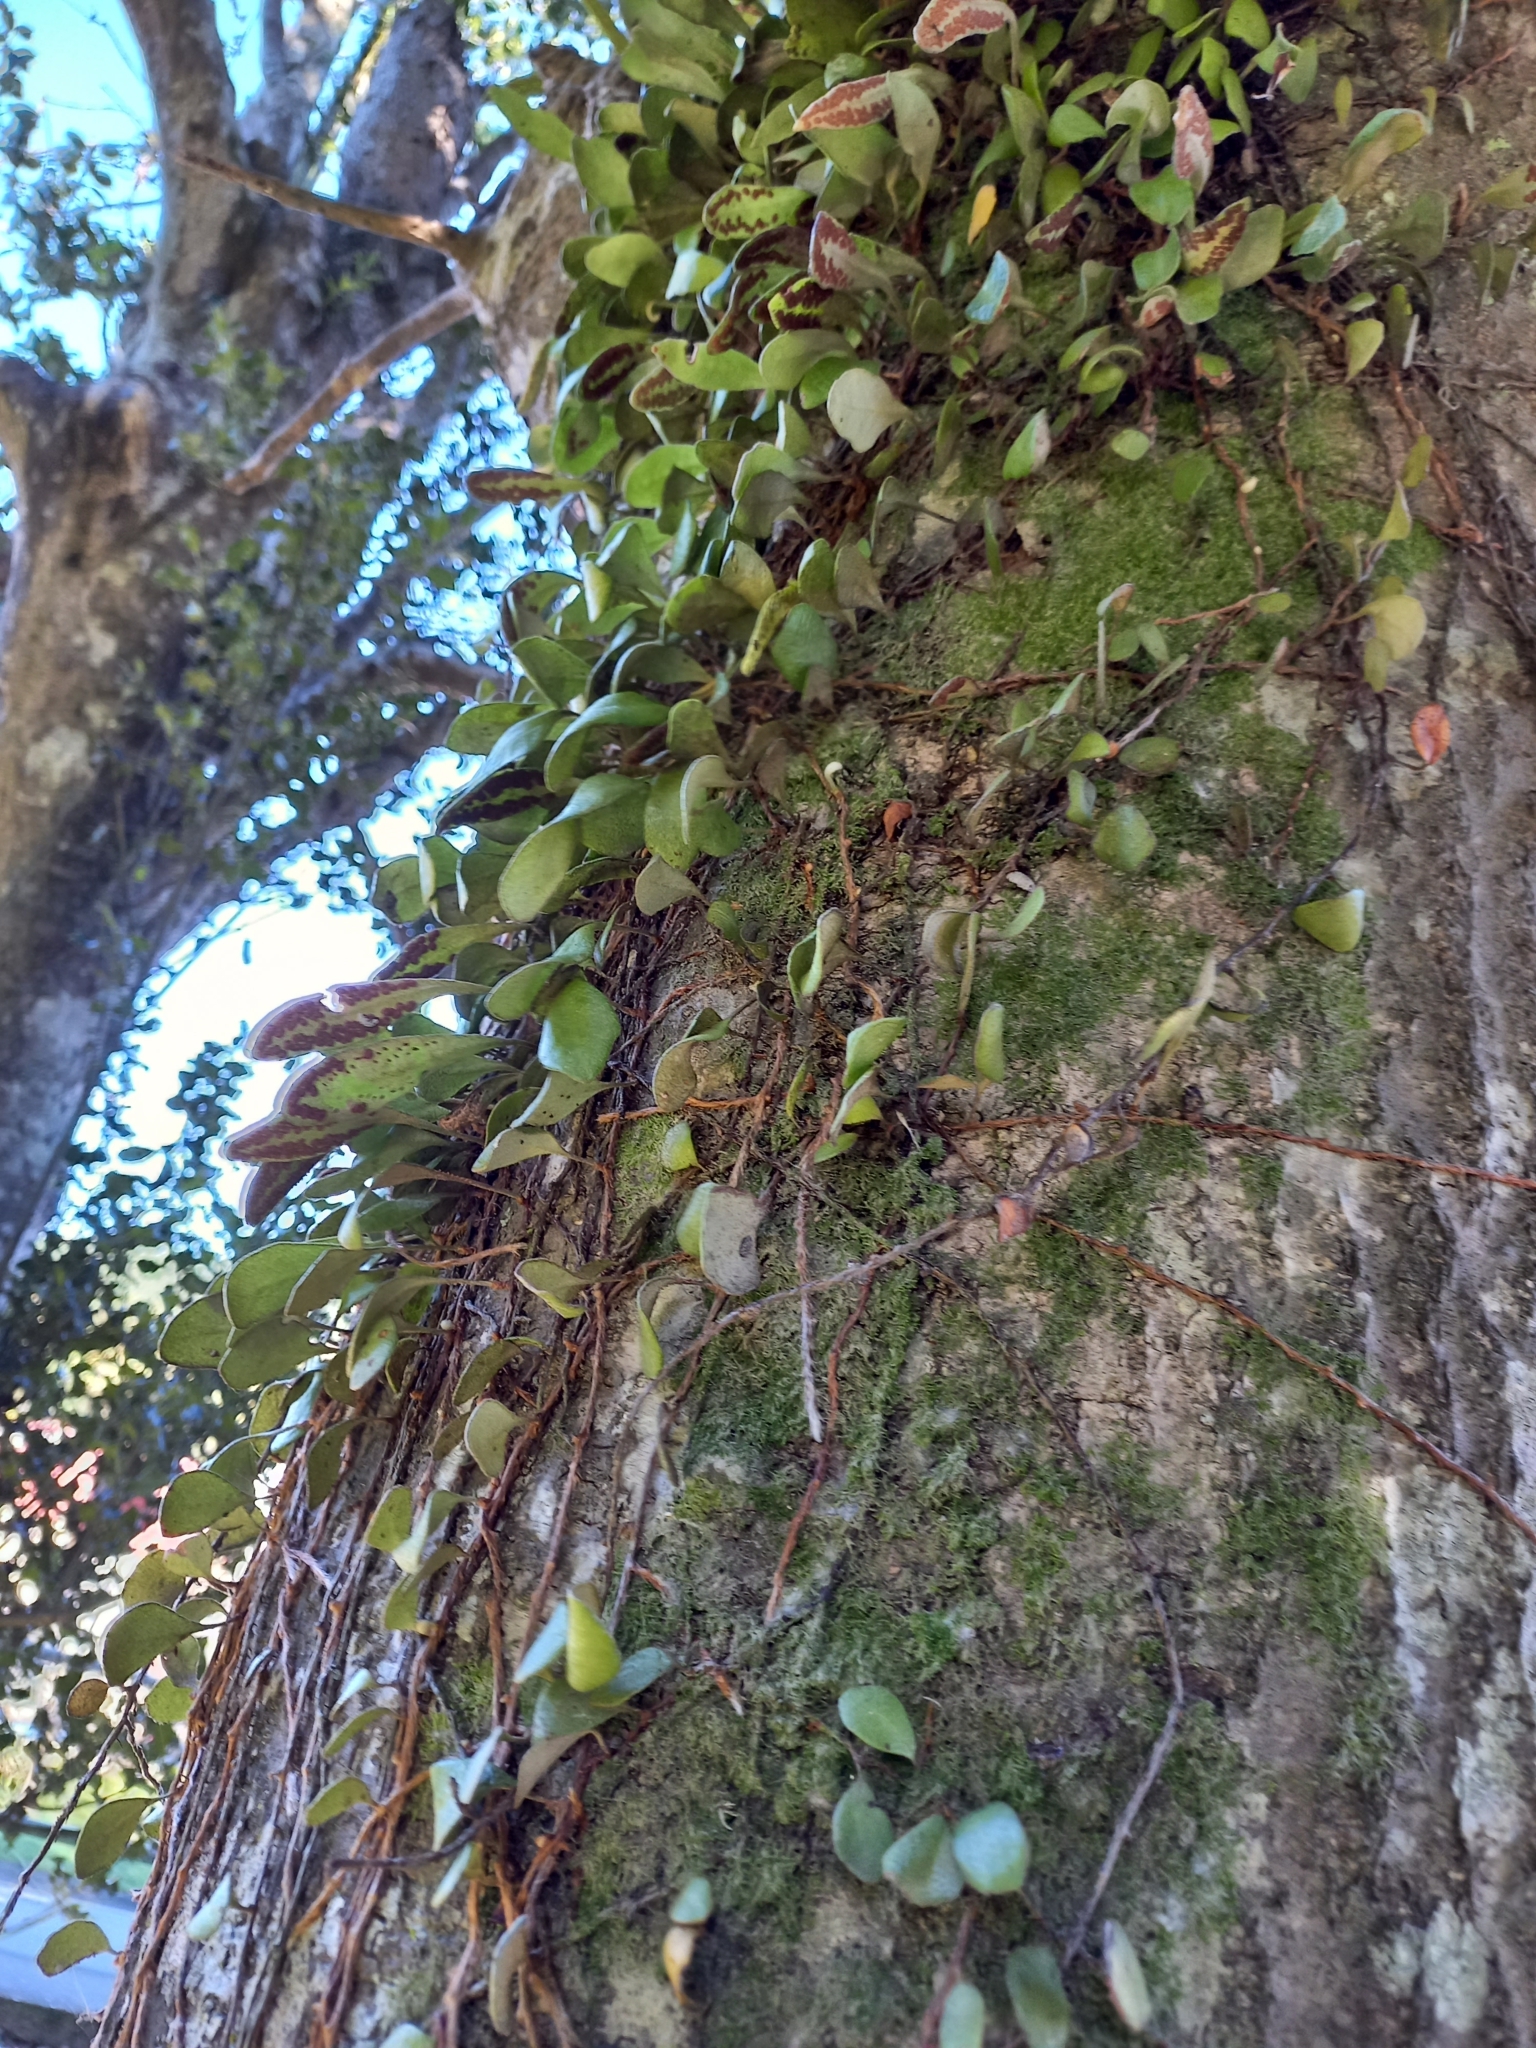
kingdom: Plantae
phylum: Tracheophyta
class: Polypodiopsida
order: Polypodiales
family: Polypodiaceae
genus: Pyrrosia
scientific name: Pyrrosia eleagnifolia
